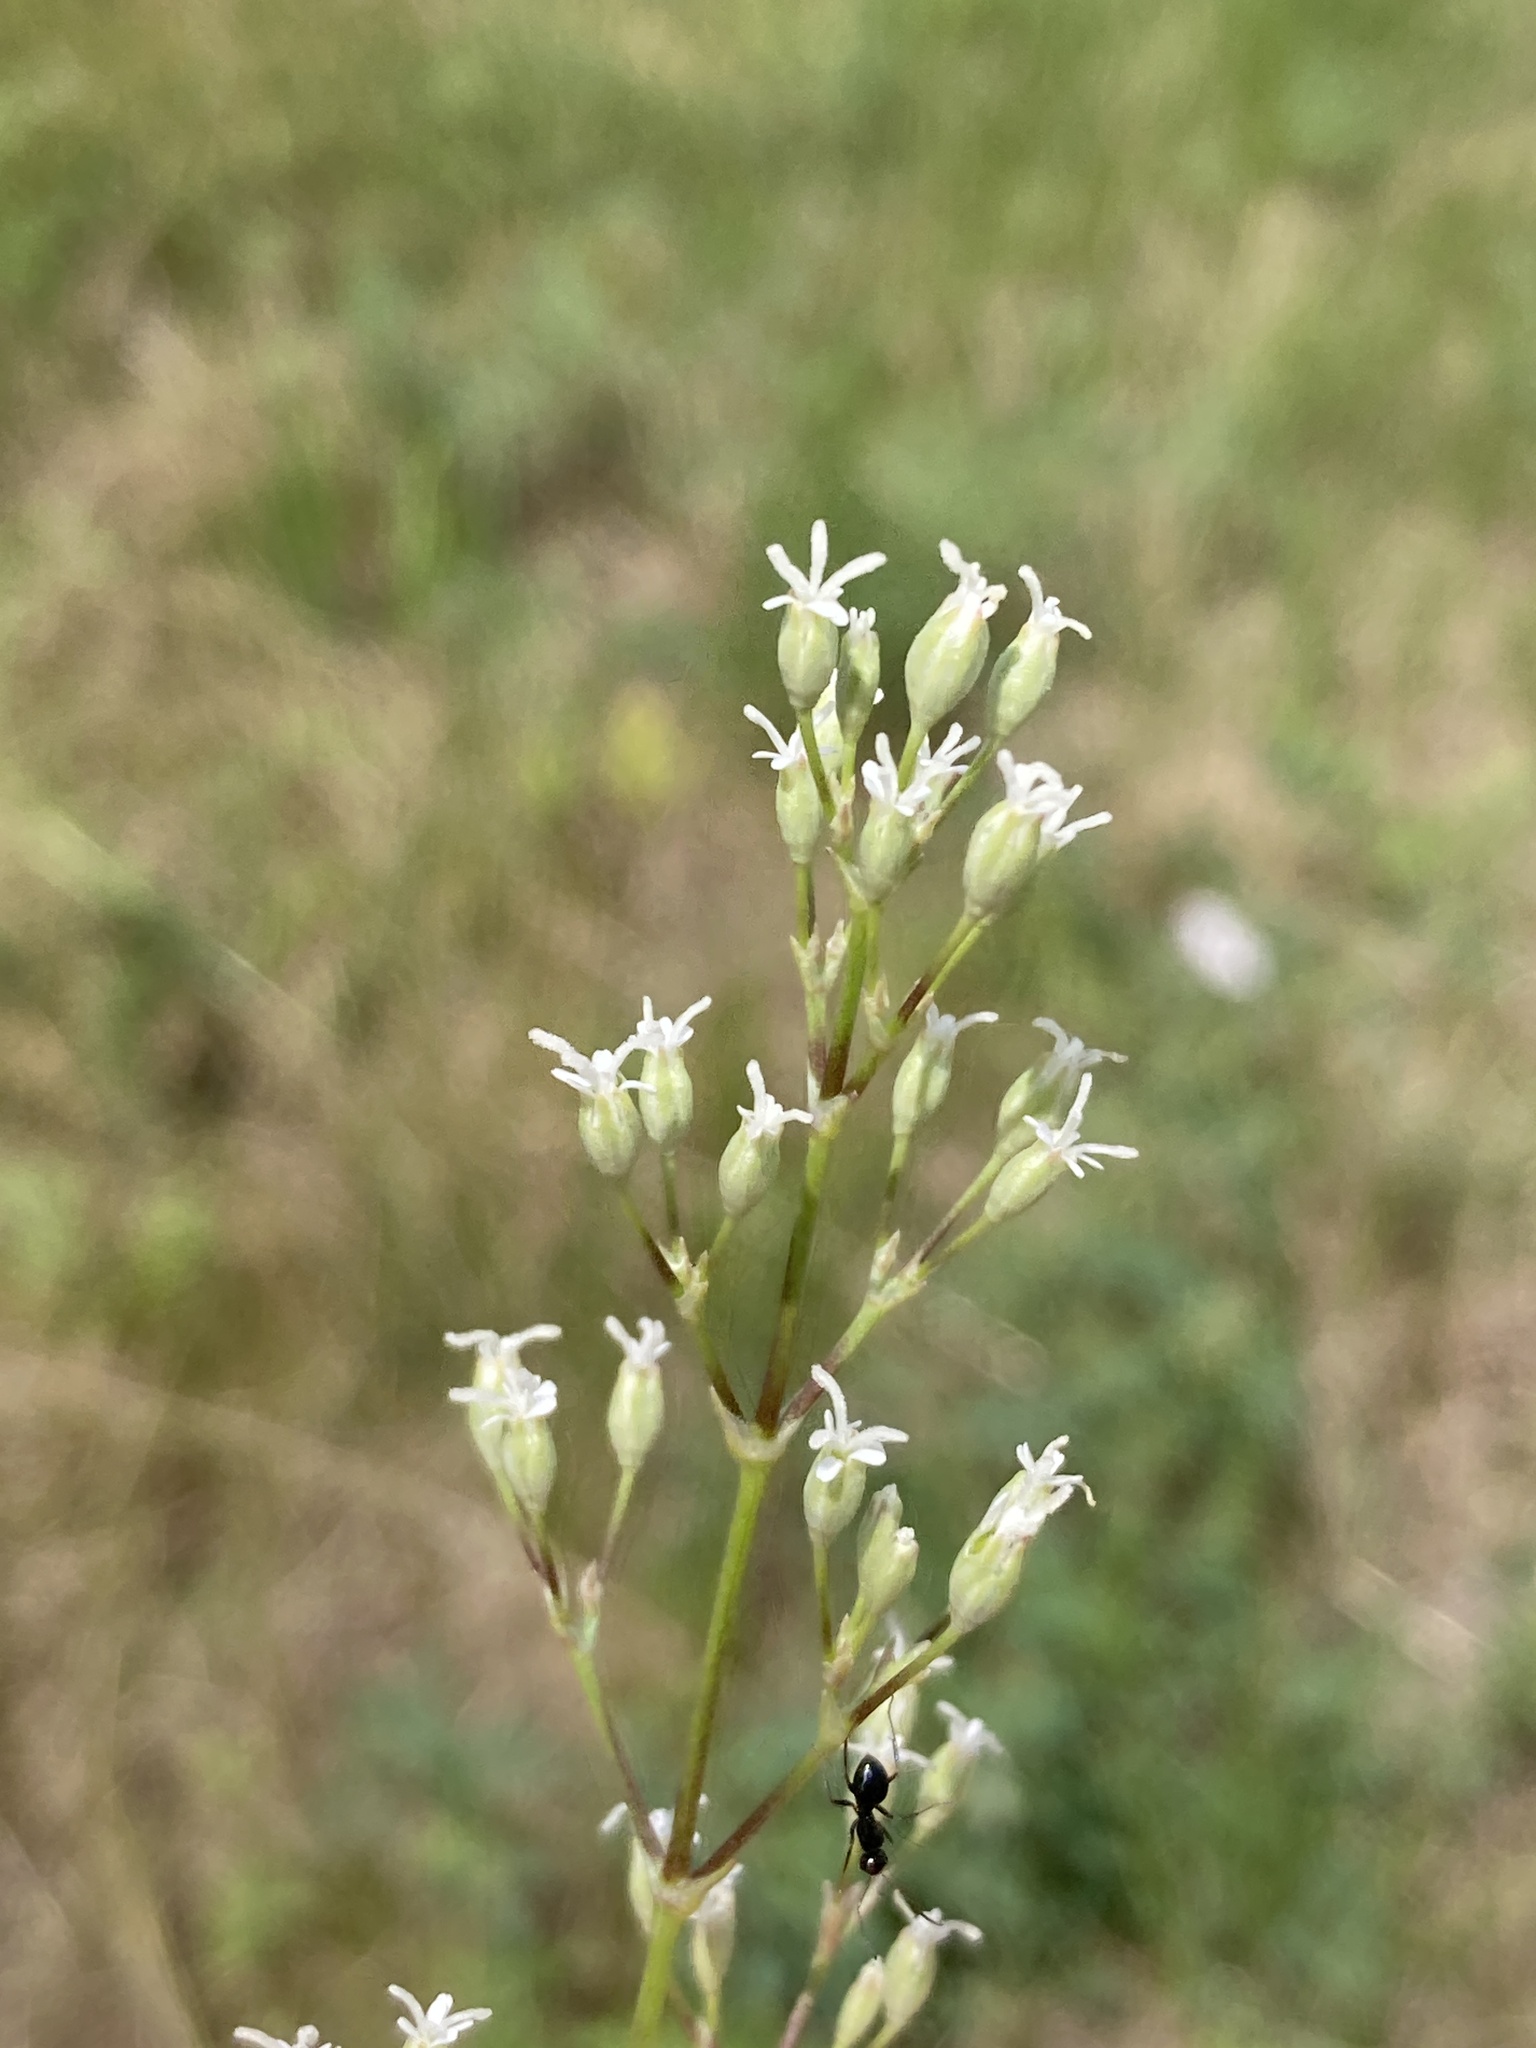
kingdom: Plantae
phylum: Tracheophyta
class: Magnoliopsida
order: Caryophyllales
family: Caryophyllaceae
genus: Silene
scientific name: Silene wolgensis
